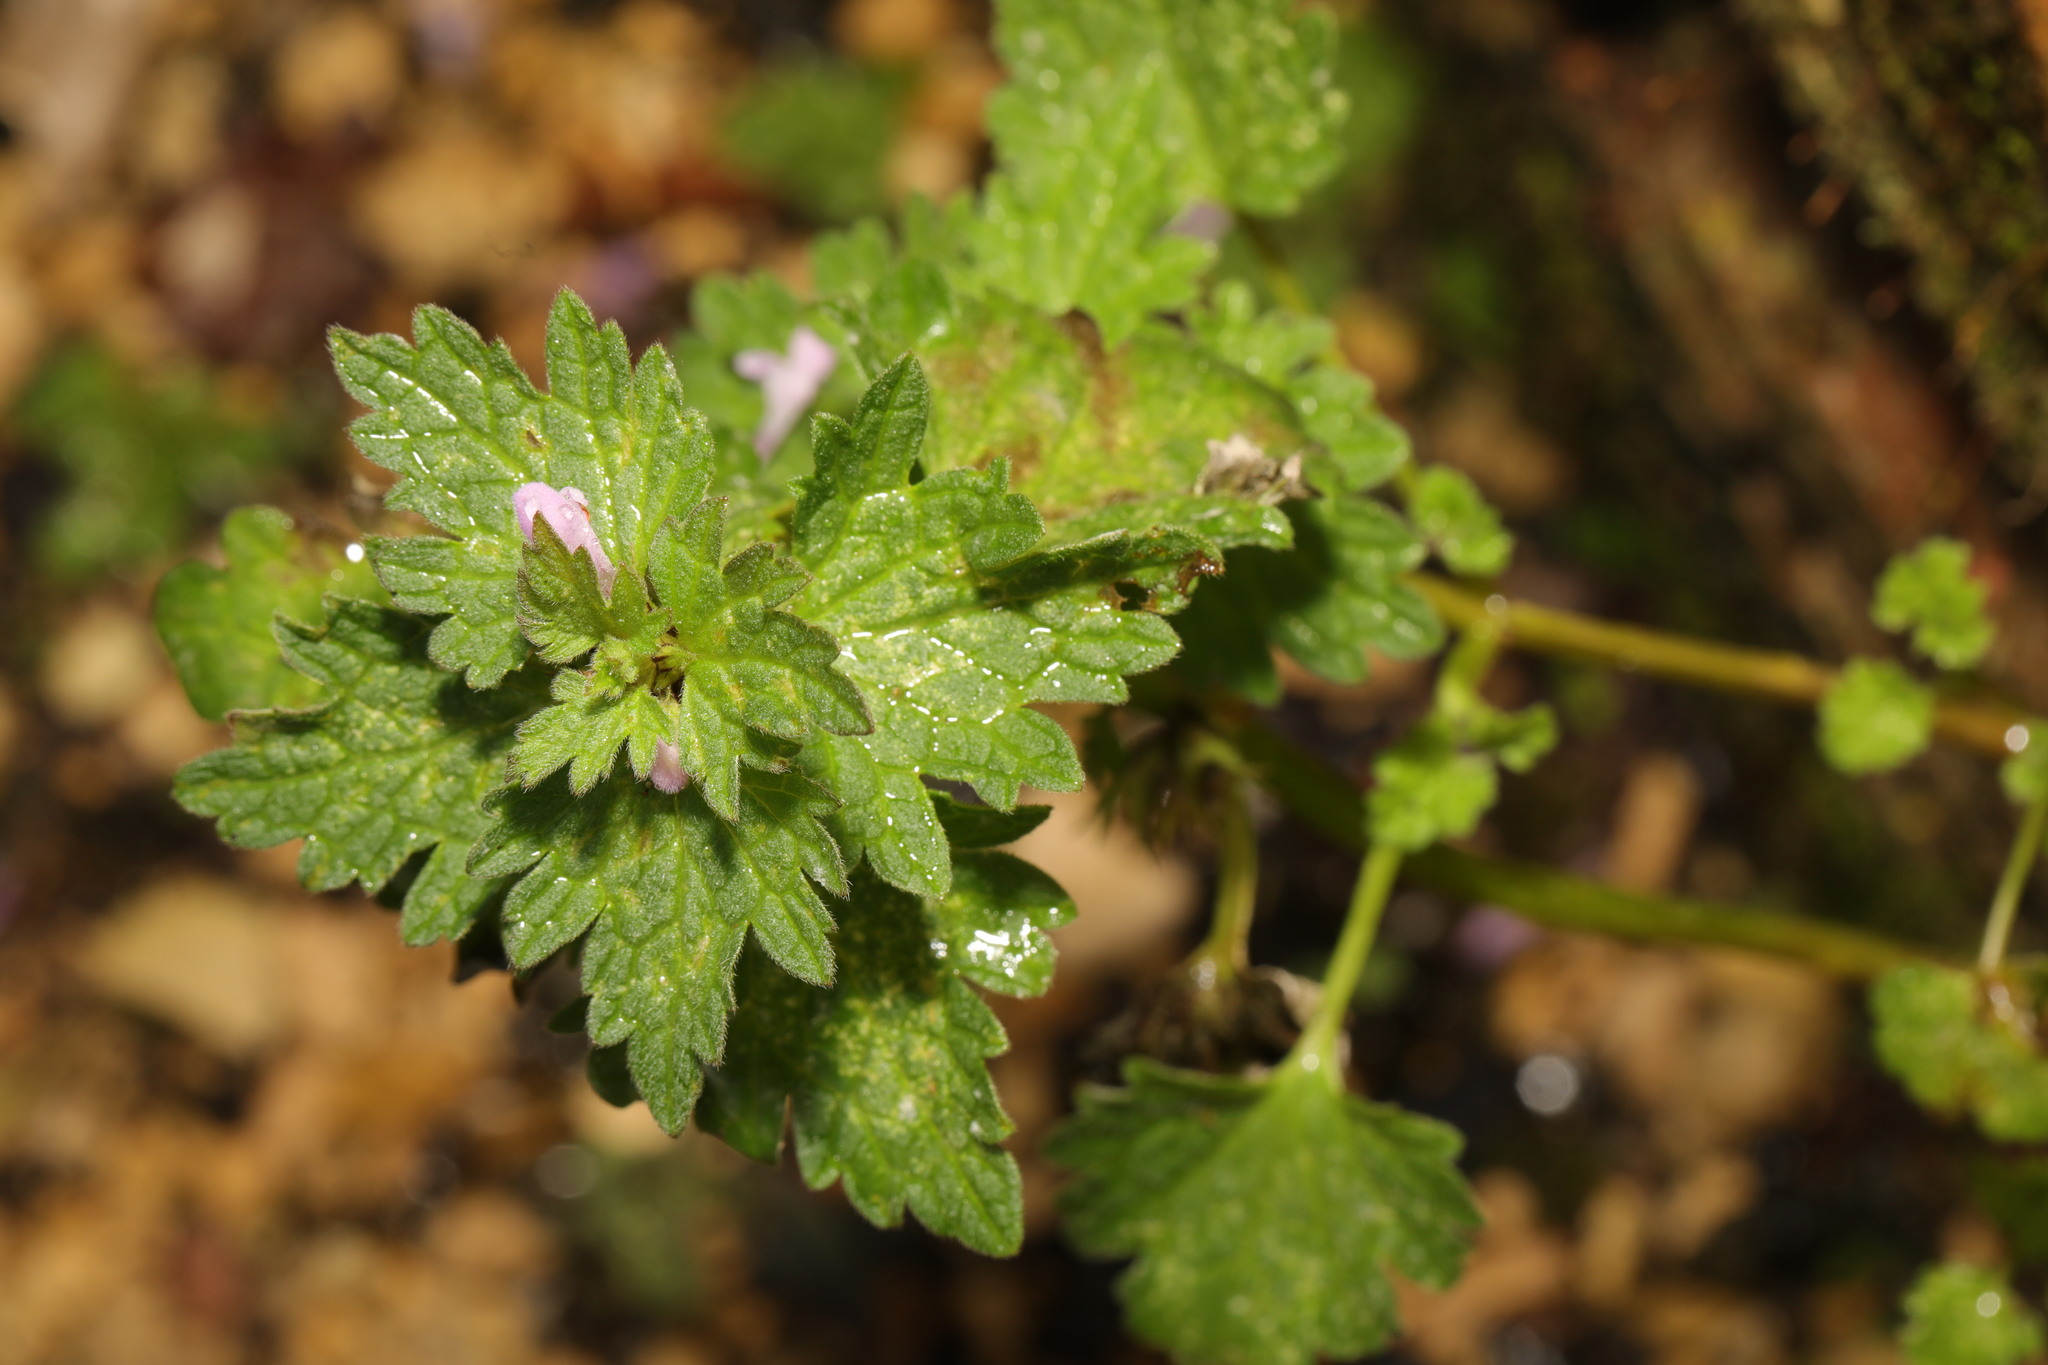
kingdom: Plantae
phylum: Tracheophyta
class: Magnoliopsida
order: Lamiales
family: Lamiaceae
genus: Lamium
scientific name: Lamium hybridum
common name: Cut-leaved dead-nettle
